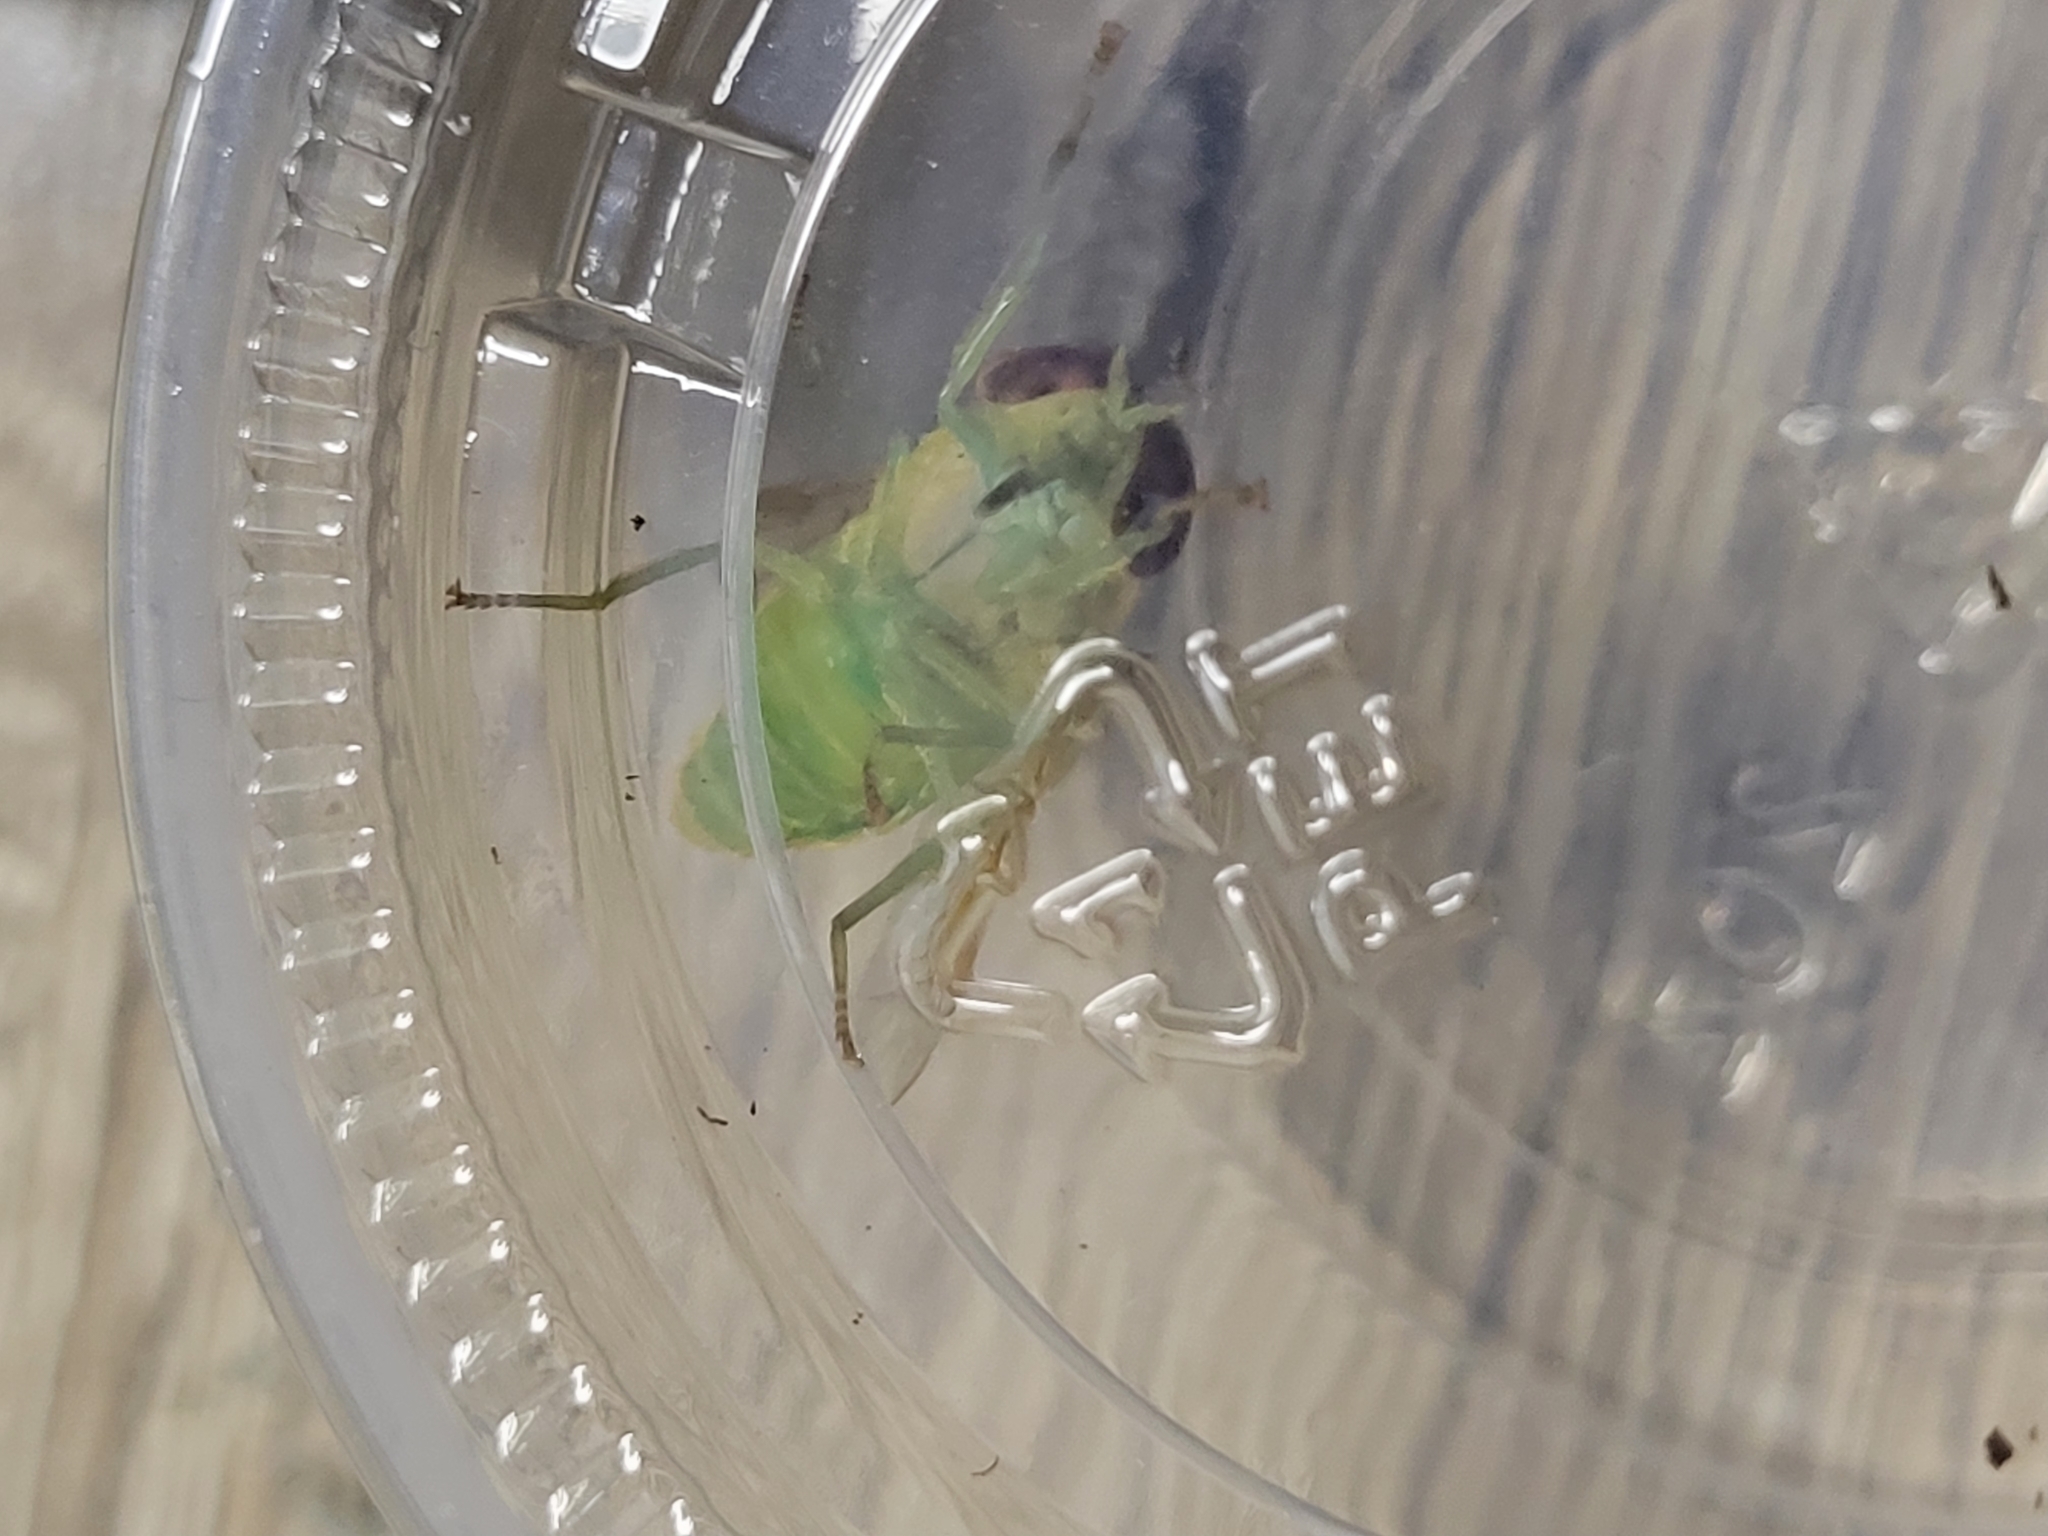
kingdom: Animalia
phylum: Arthropoda
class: Insecta
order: Diptera
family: Tabanidae
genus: Chlorotabanus
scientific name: Chlorotabanus crepuscularis
